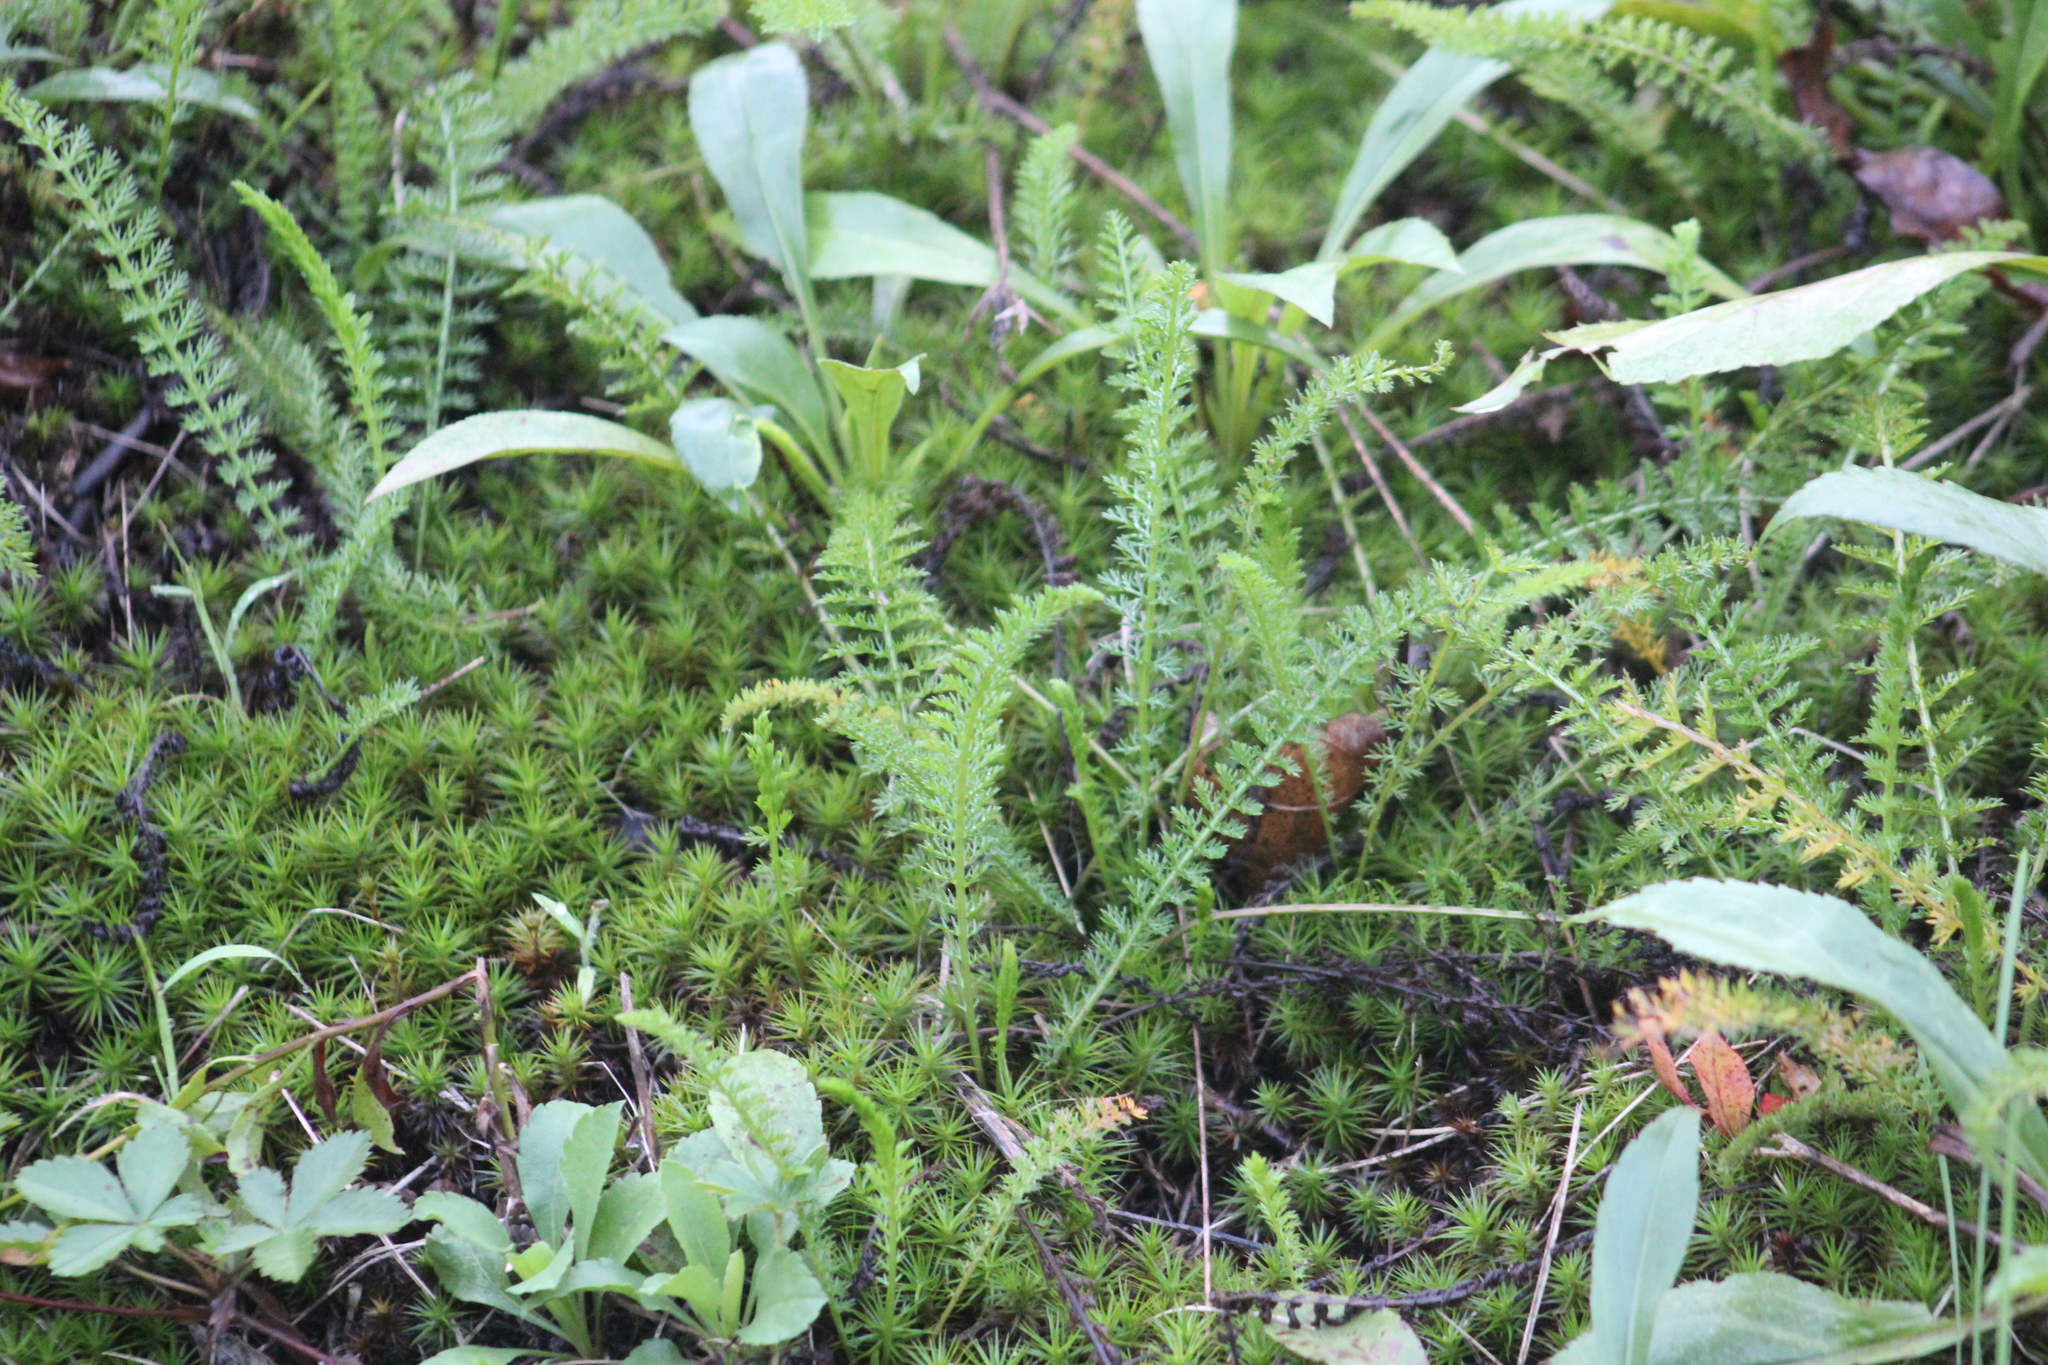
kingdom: Plantae
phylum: Tracheophyta
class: Magnoliopsida
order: Asterales
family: Asteraceae
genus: Achillea
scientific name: Achillea millefolium
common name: Yarrow
